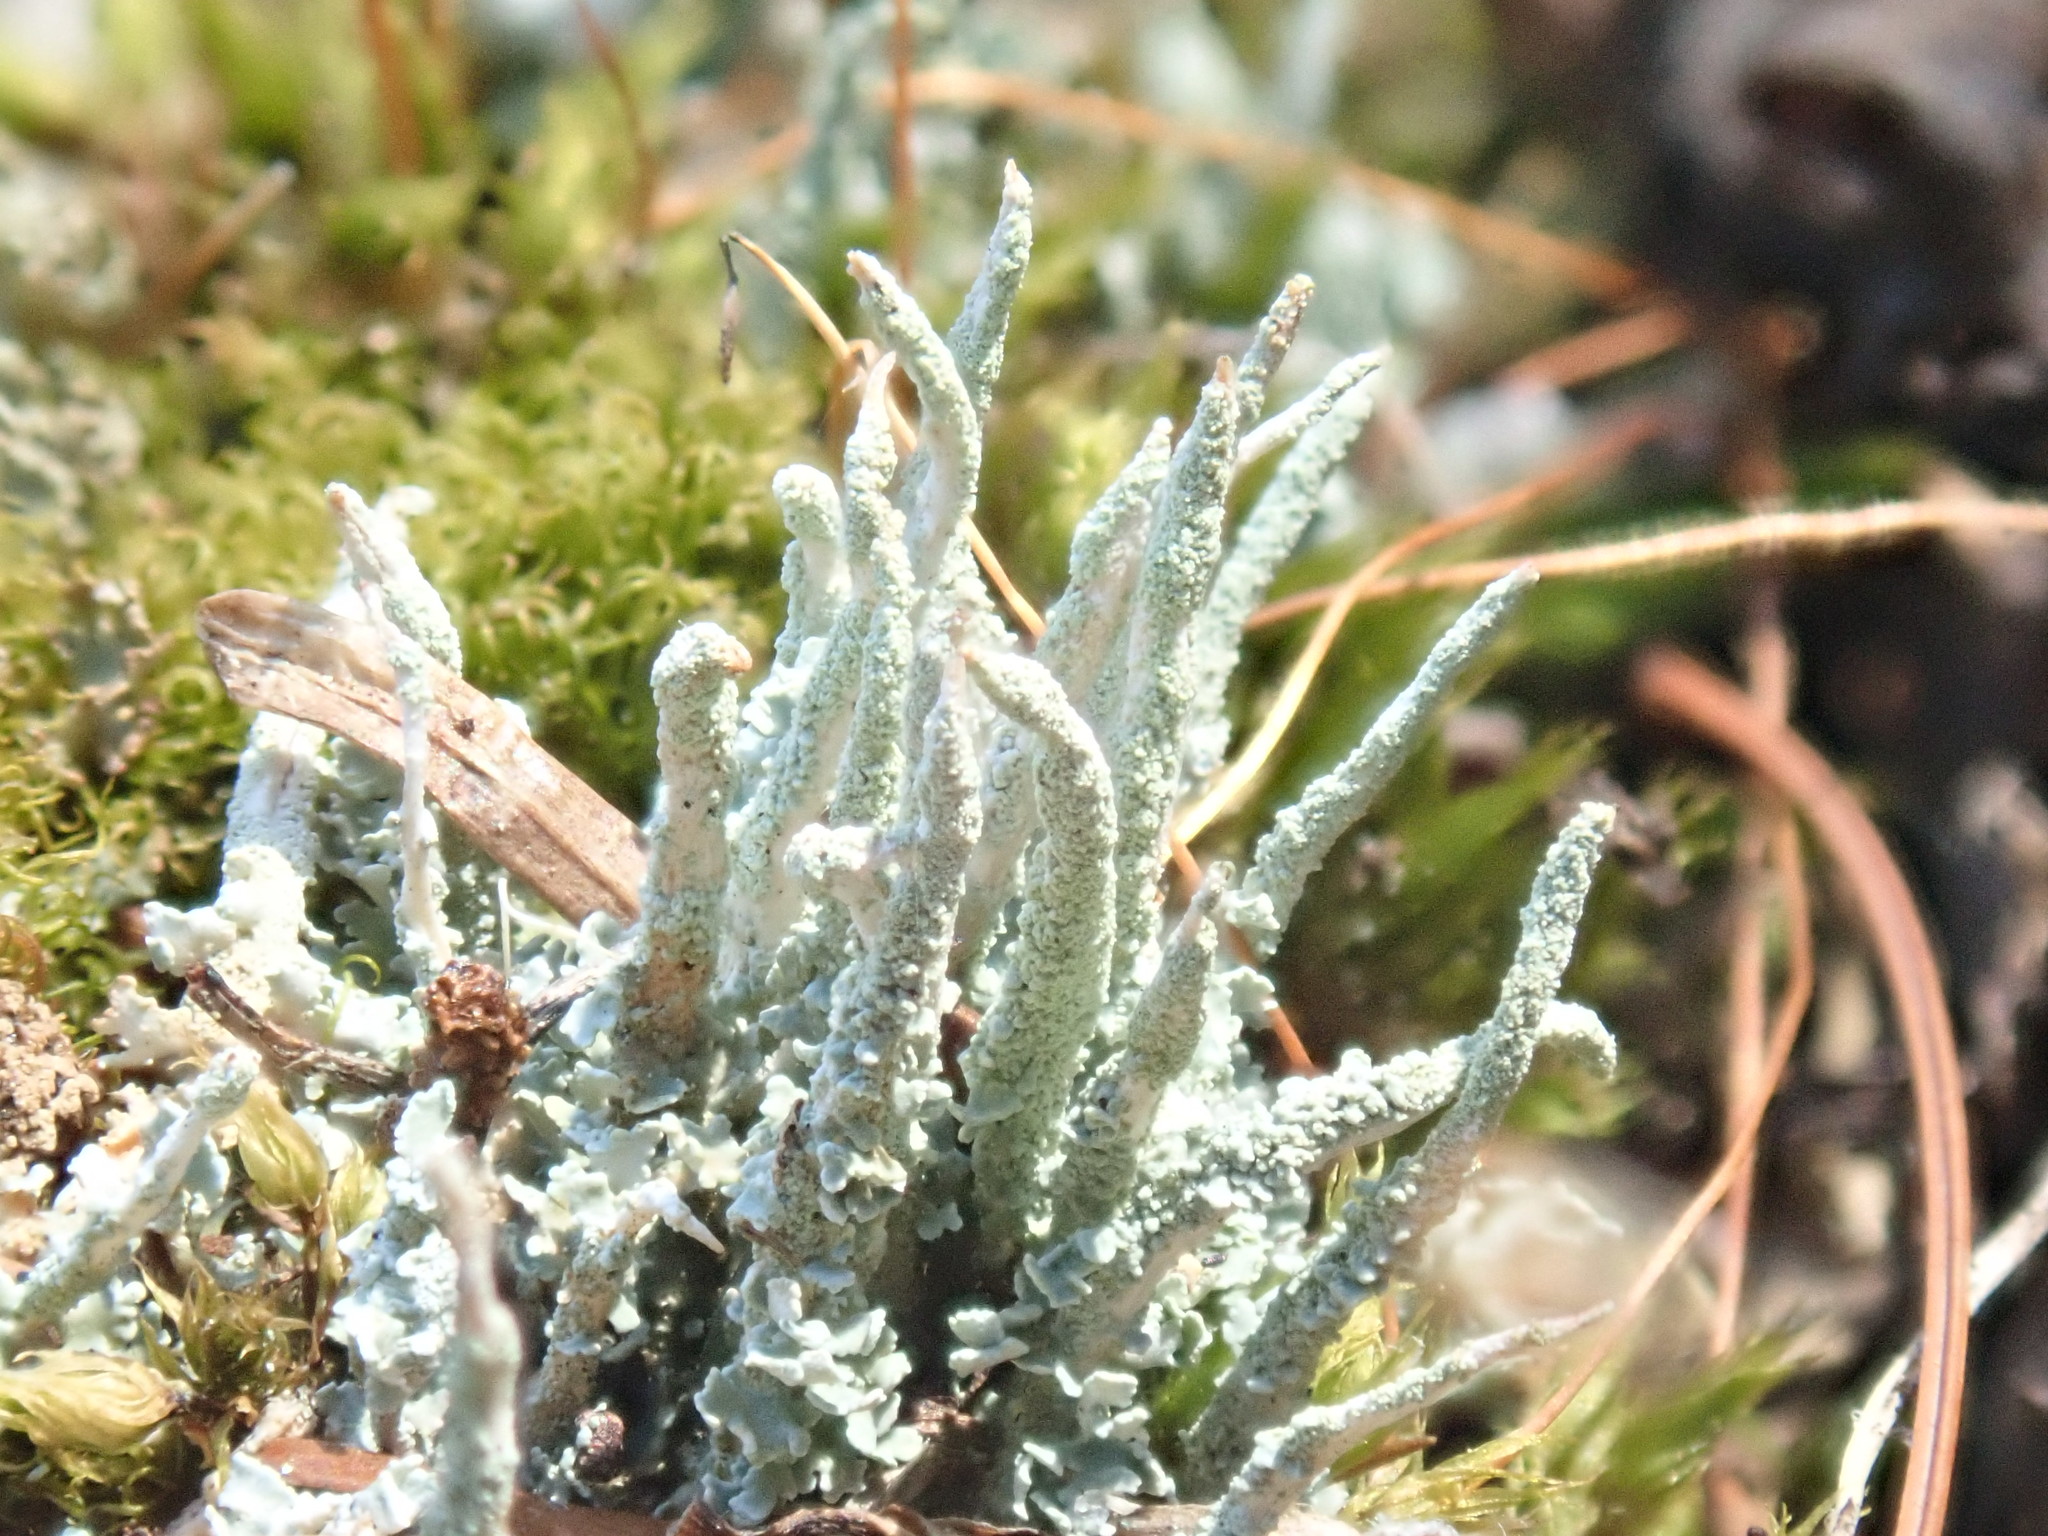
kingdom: Fungi
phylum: Ascomycota
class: Lecanoromycetes
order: Lecanorales
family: Cladoniaceae
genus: Cladonia
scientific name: Cladonia coniocraea
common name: Common powderhorn
